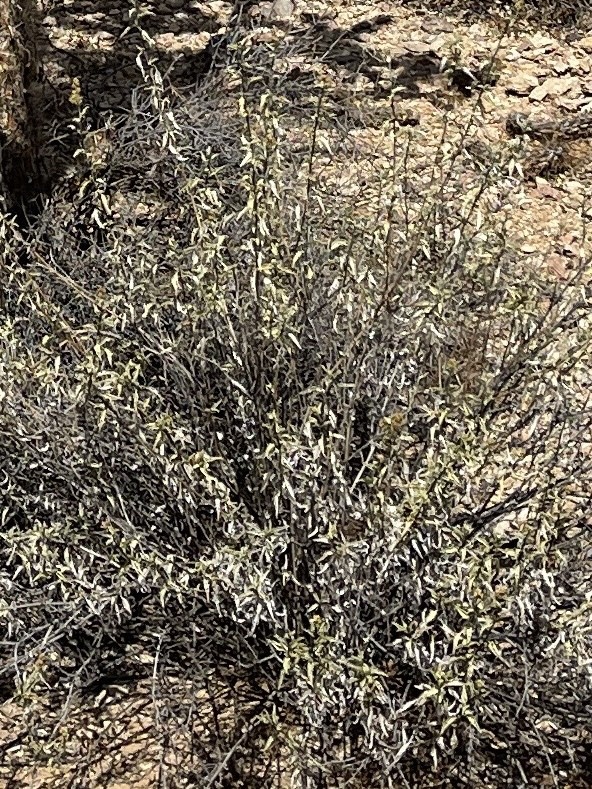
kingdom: Plantae
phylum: Tracheophyta
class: Magnoliopsida
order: Asterales
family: Asteraceae
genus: Ambrosia
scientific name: Ambrosia deltoidea
